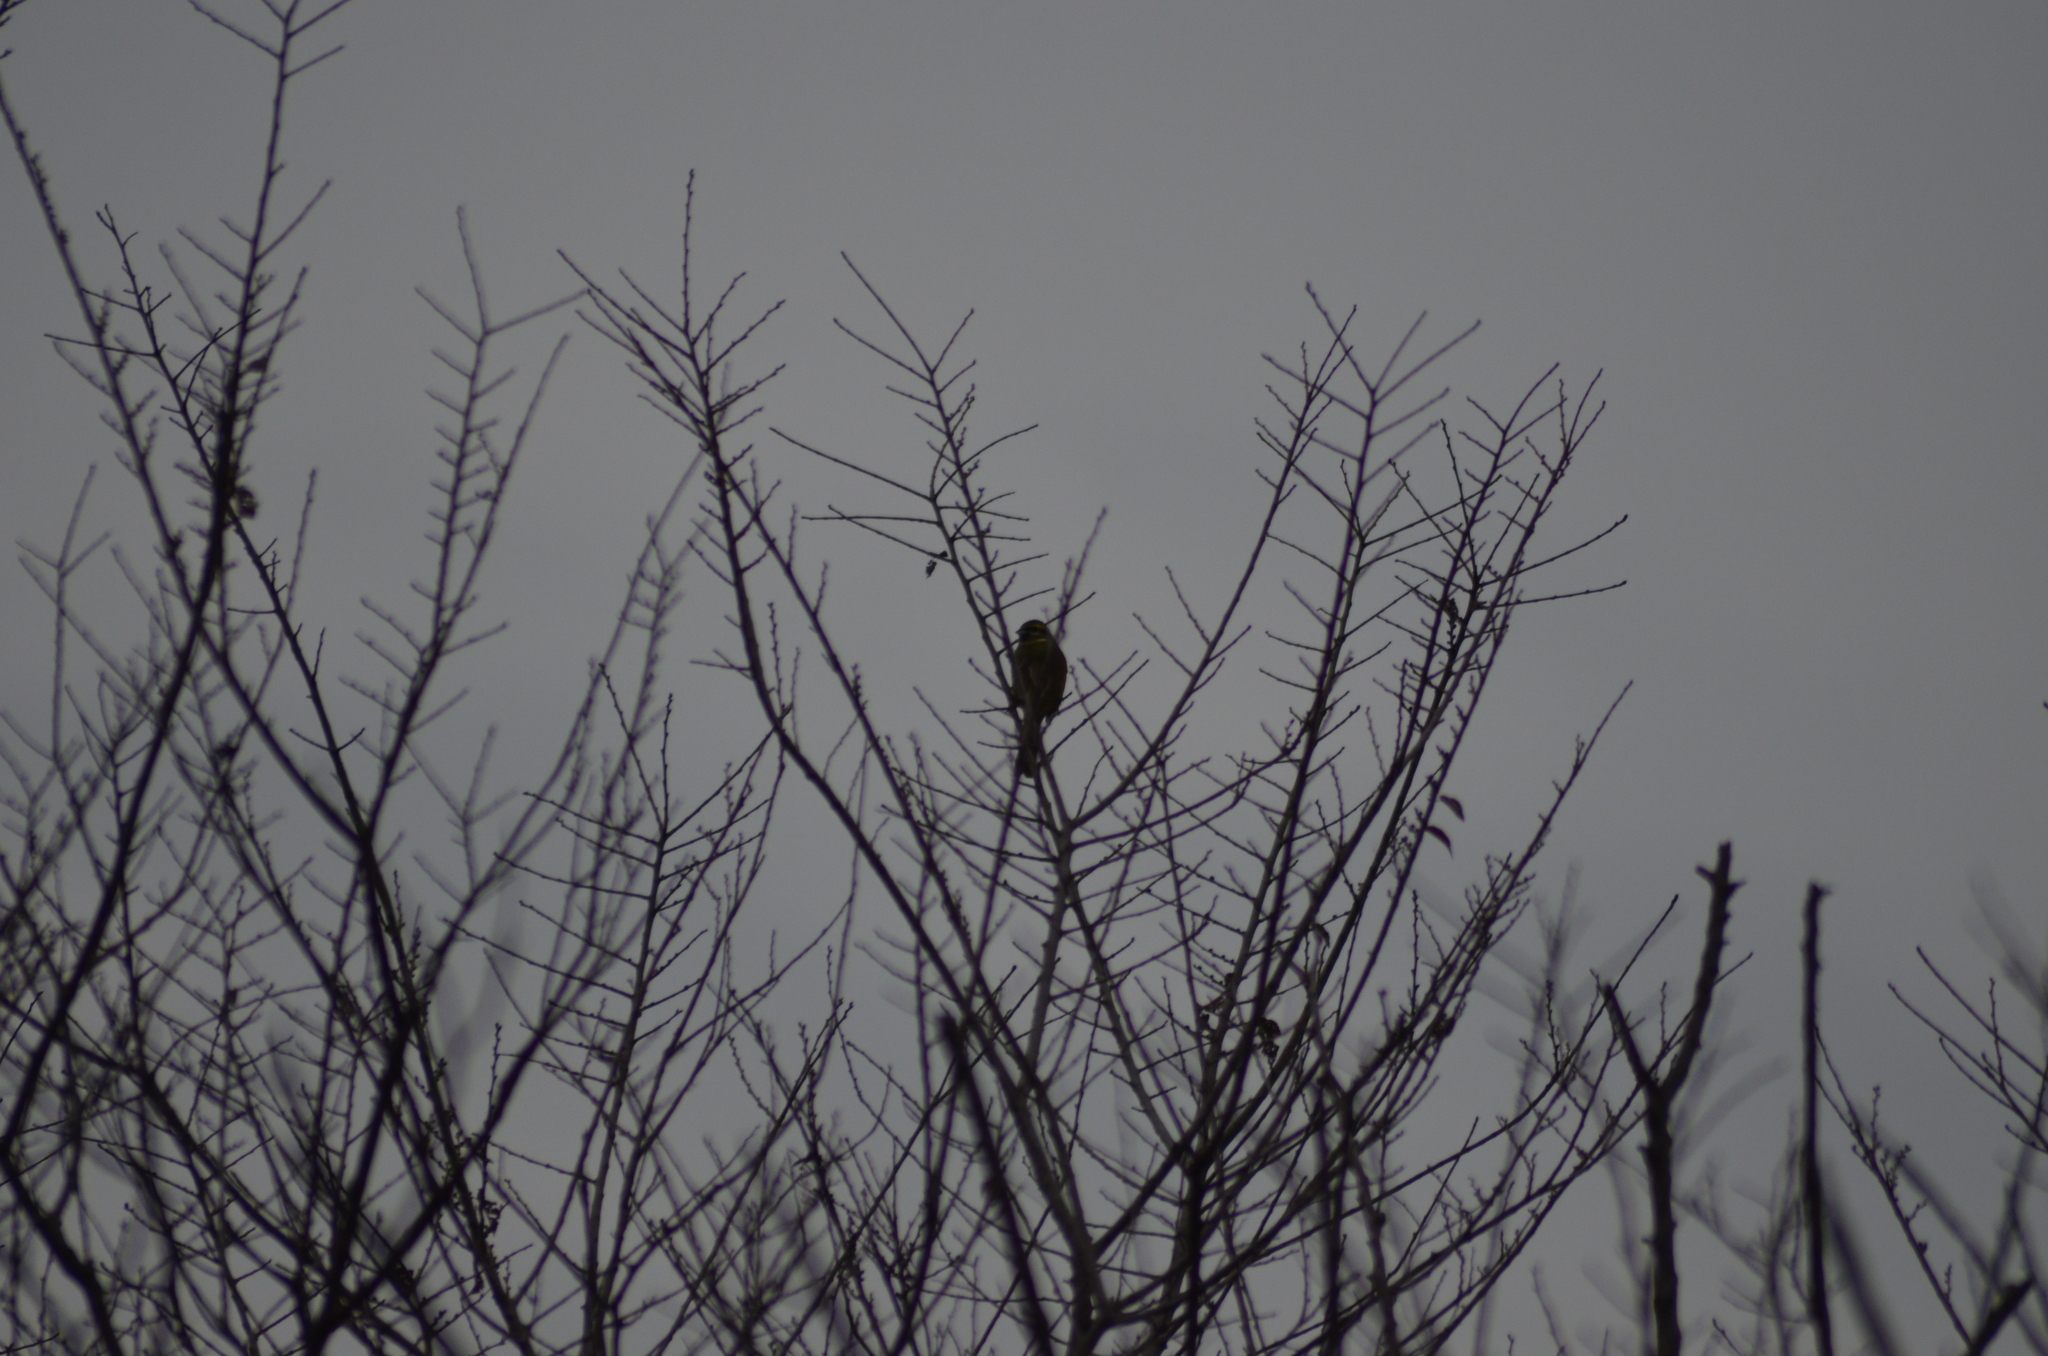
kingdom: Animalia
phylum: Chordata
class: Aves
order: Passeriformes
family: Emberizidae
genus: Emberiza
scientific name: Emberiza cirlus
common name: Cirl bunting
